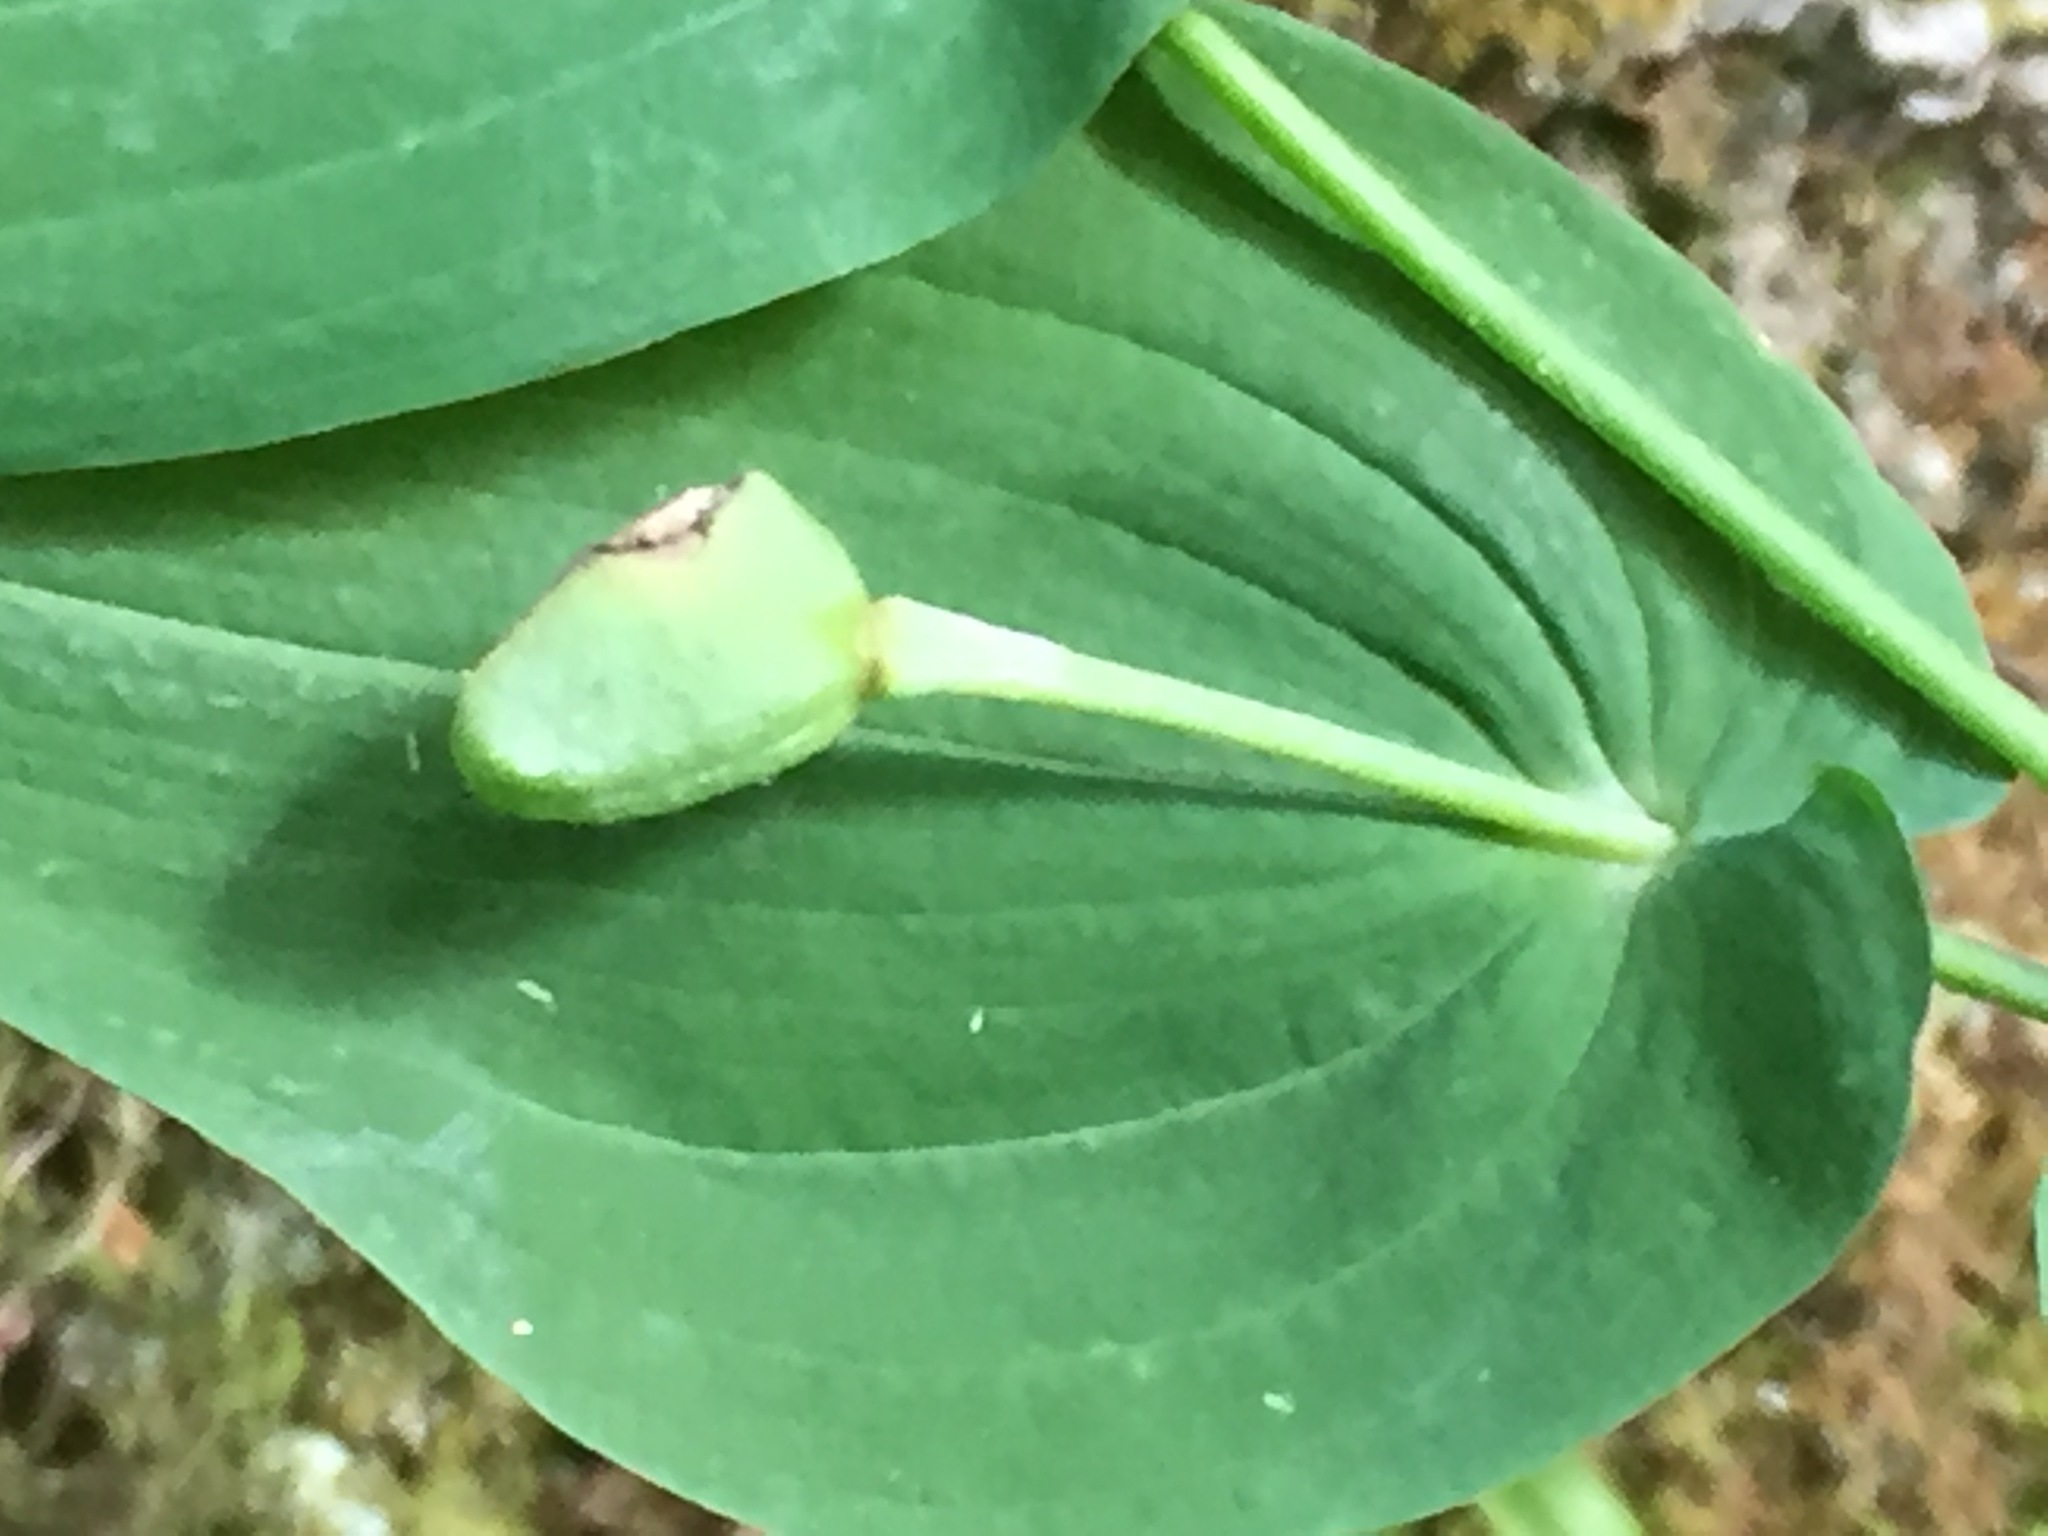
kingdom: Plantae
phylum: Tracheophyta
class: Liliopsida
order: Liliales
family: Colchicaceae
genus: Uvularia
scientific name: Uvularia grandiflora
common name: Bellwort
